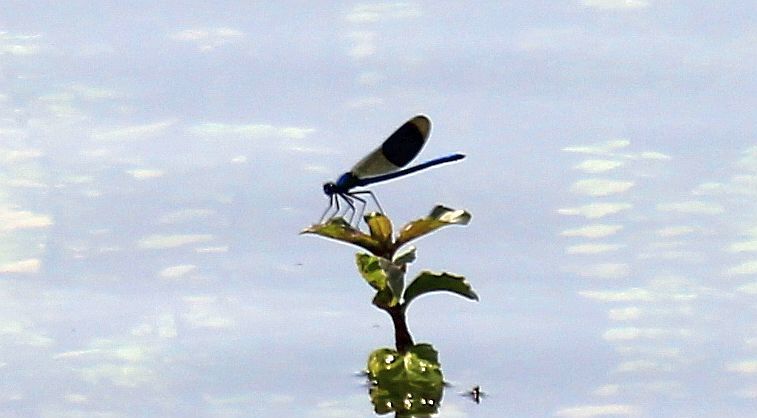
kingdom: Animalia
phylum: Arthropoda
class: Insecta
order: Odonata
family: Calopterygidae
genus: Calopteryx
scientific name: Calopteryx splendens
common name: Banded demoiselle
